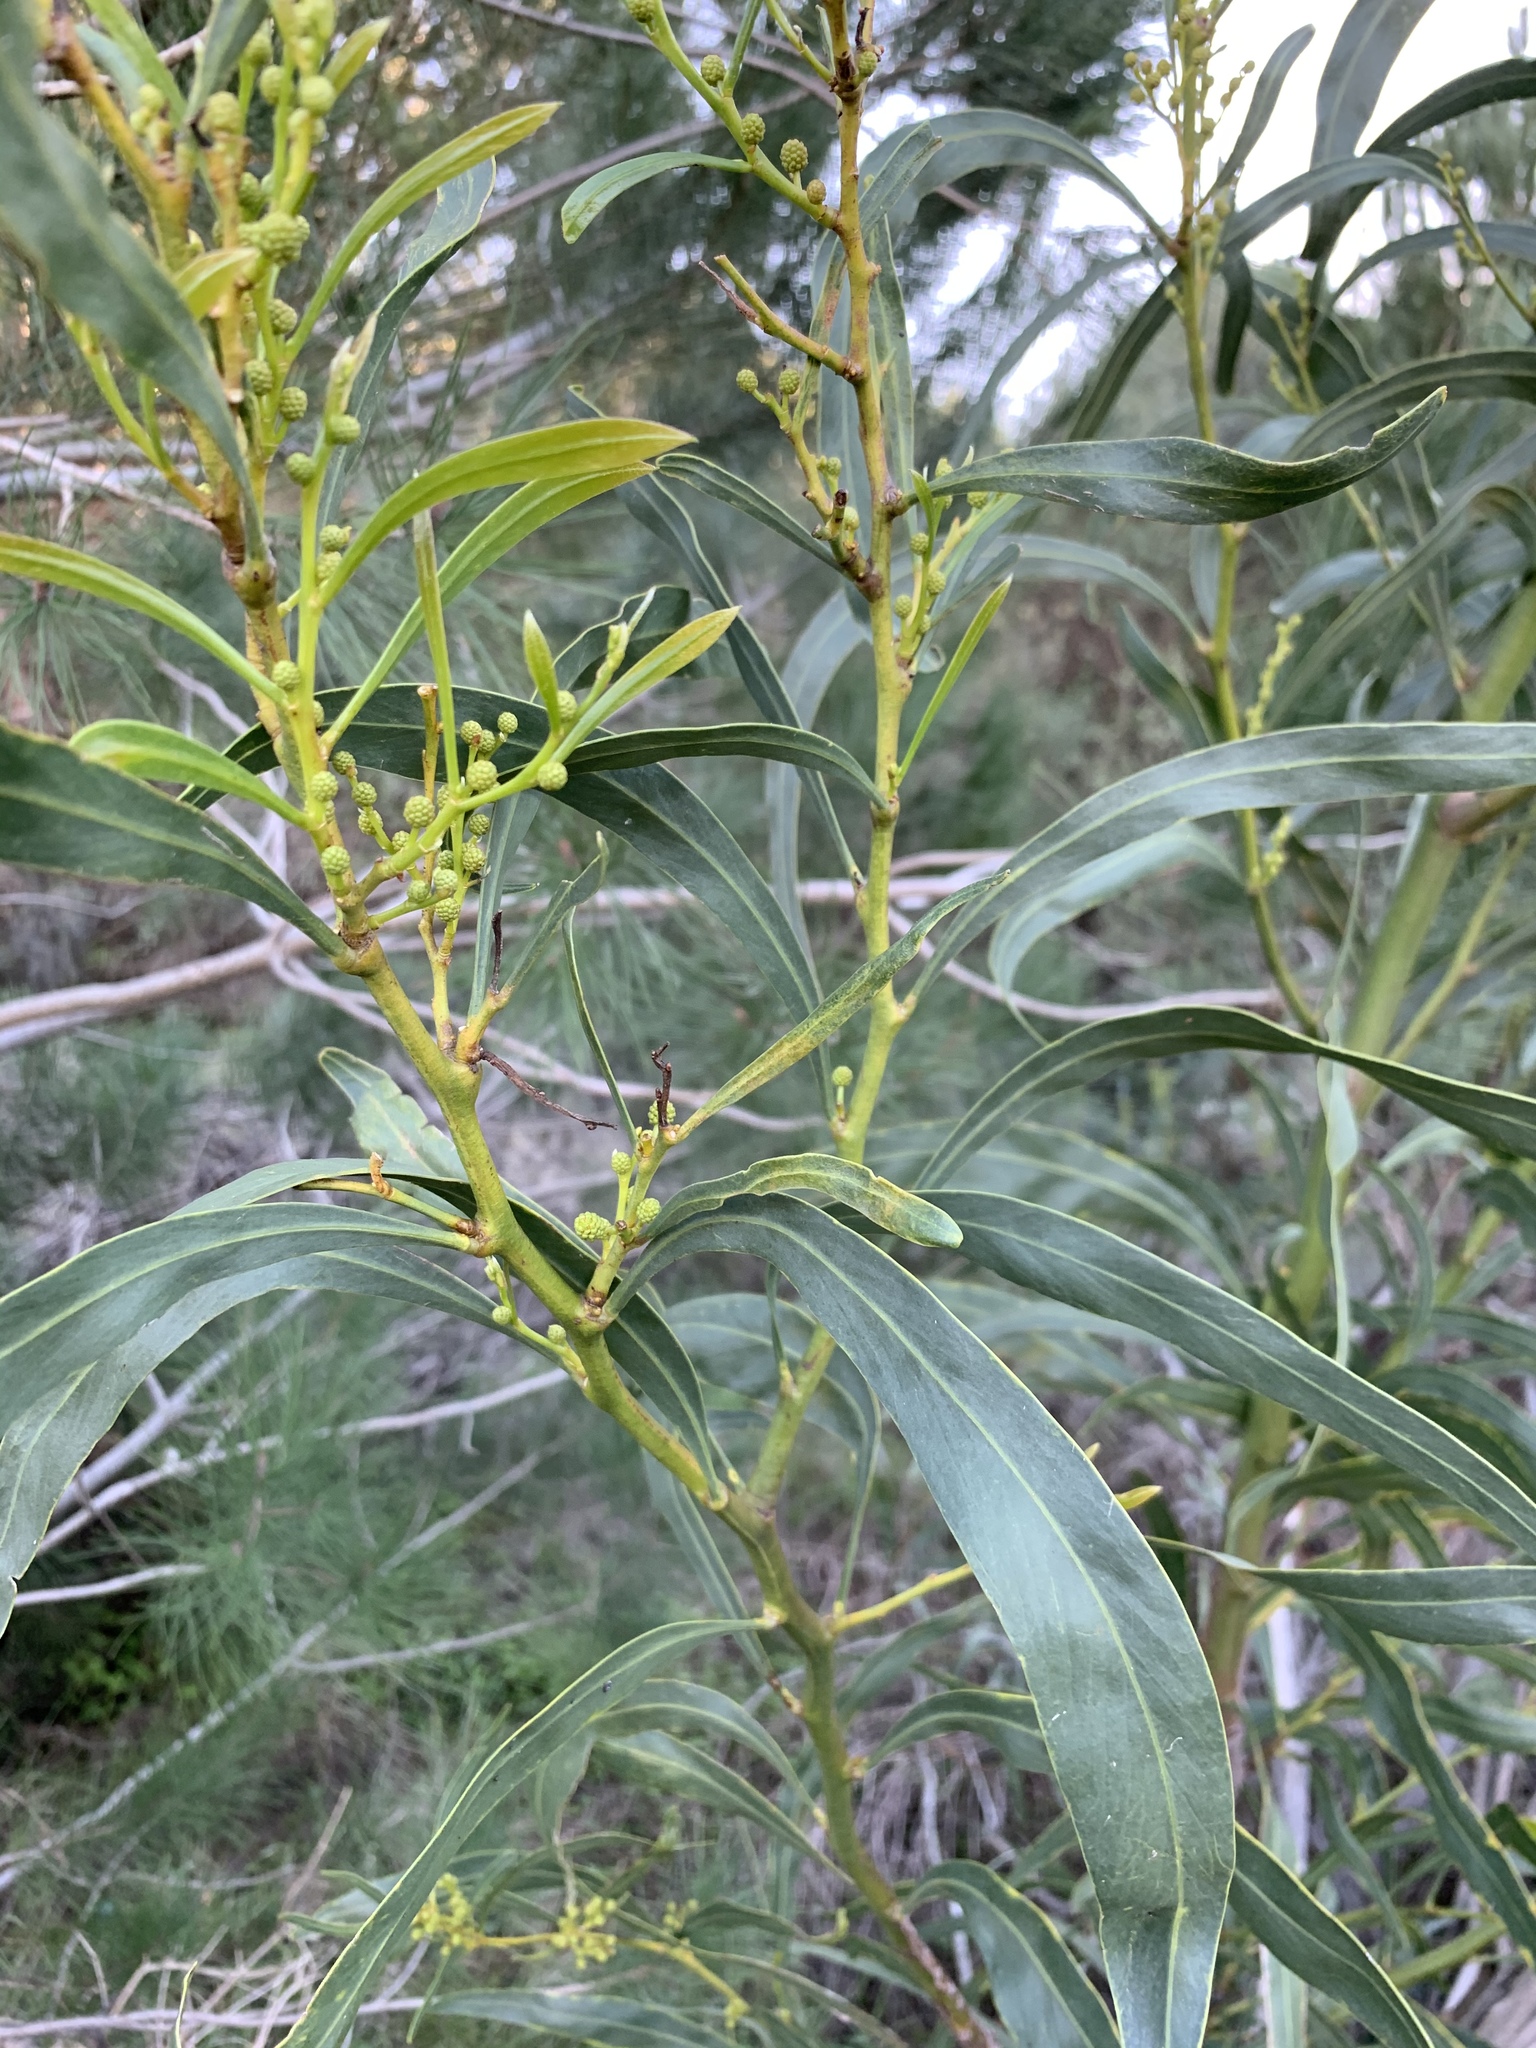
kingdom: Plantae
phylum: Tracheophyta
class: Magnoliopsida
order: Fabales
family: Fabaceae
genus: Acacia
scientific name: Acacia saligna
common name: Orange wattle
